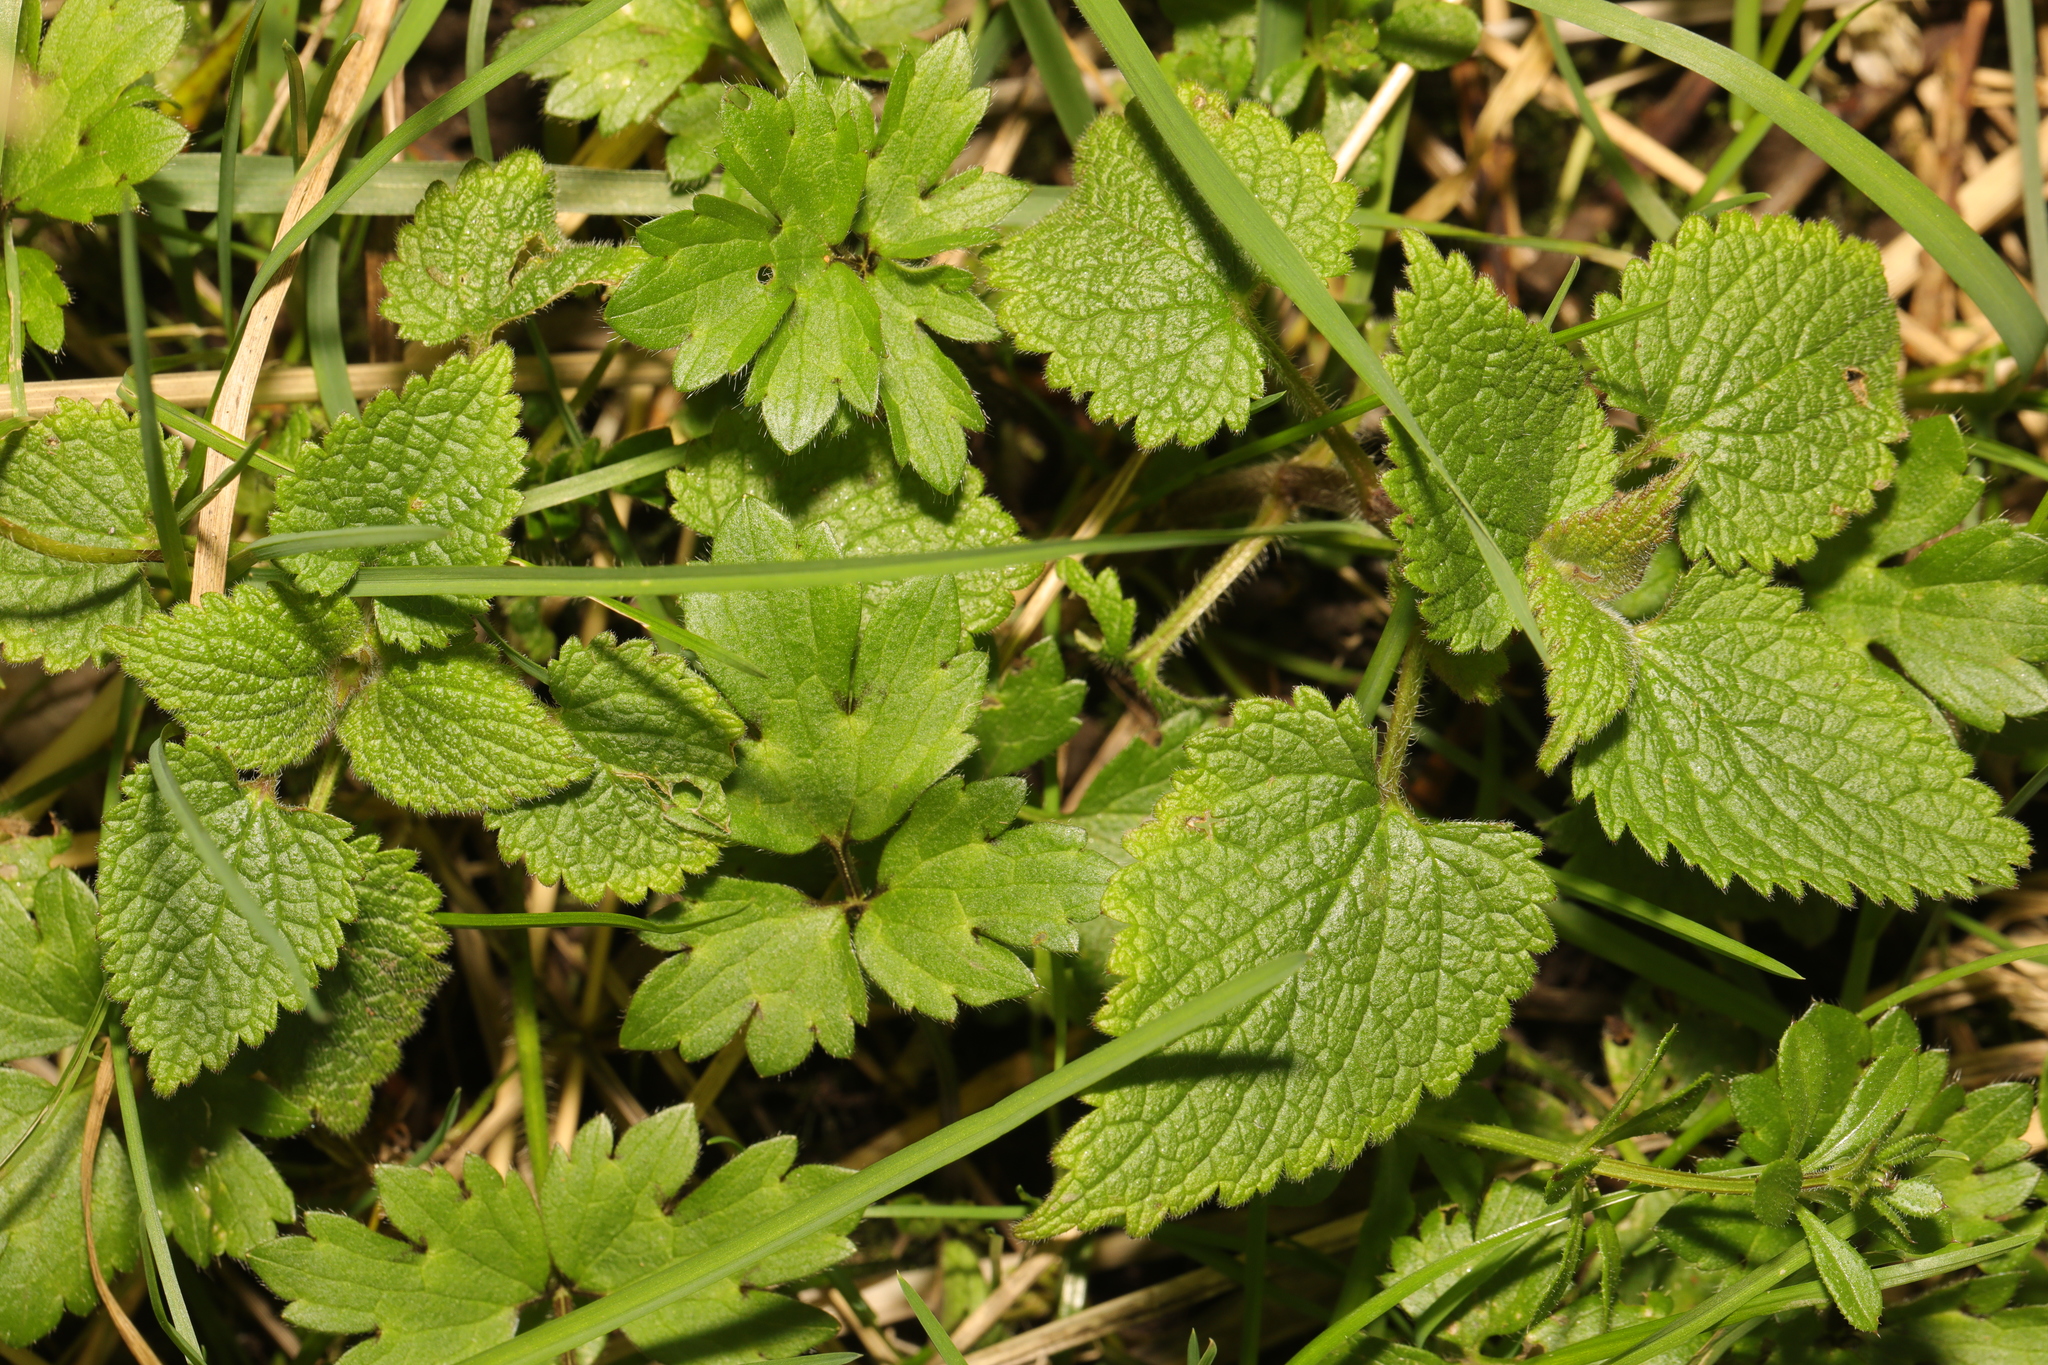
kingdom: Plantae
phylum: Tracheophyta
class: Magnoliopsida
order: Lamiales
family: Lamiaceae
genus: Lamium
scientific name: Lamium album
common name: White dead-nettle
